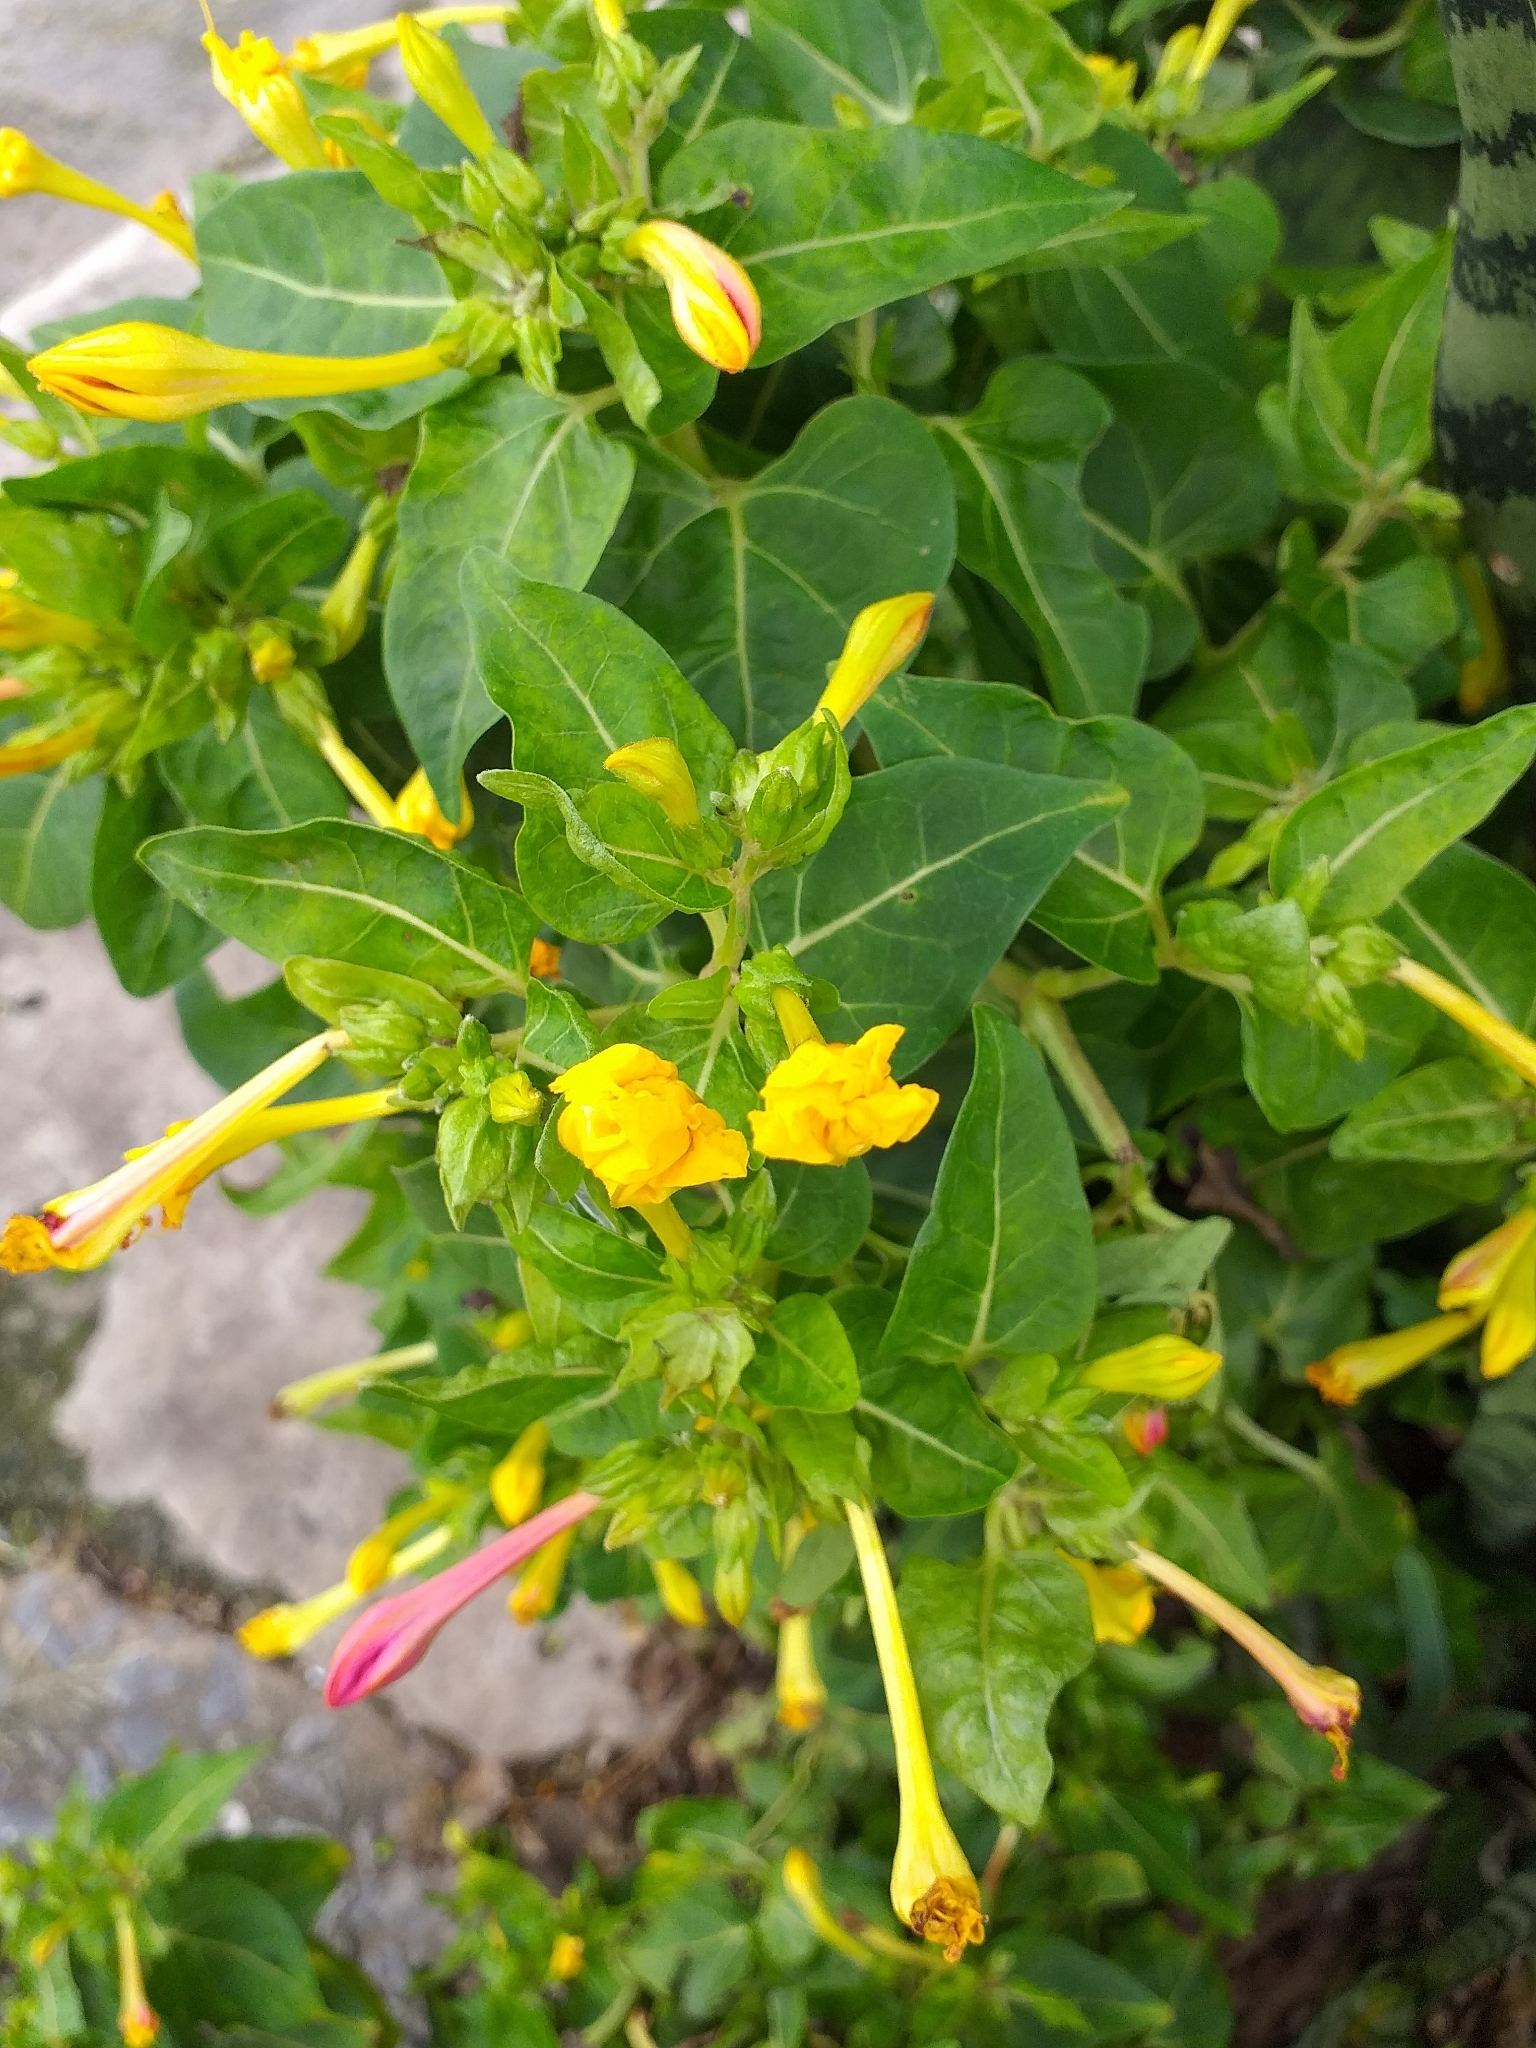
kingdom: Plantae
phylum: Tracheophyta
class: Magnoliopsida
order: Caryophyllales
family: Nyctaginaceae
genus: Mirabilis
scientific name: Mirabilis jalapa
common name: Marvel-of-peru
